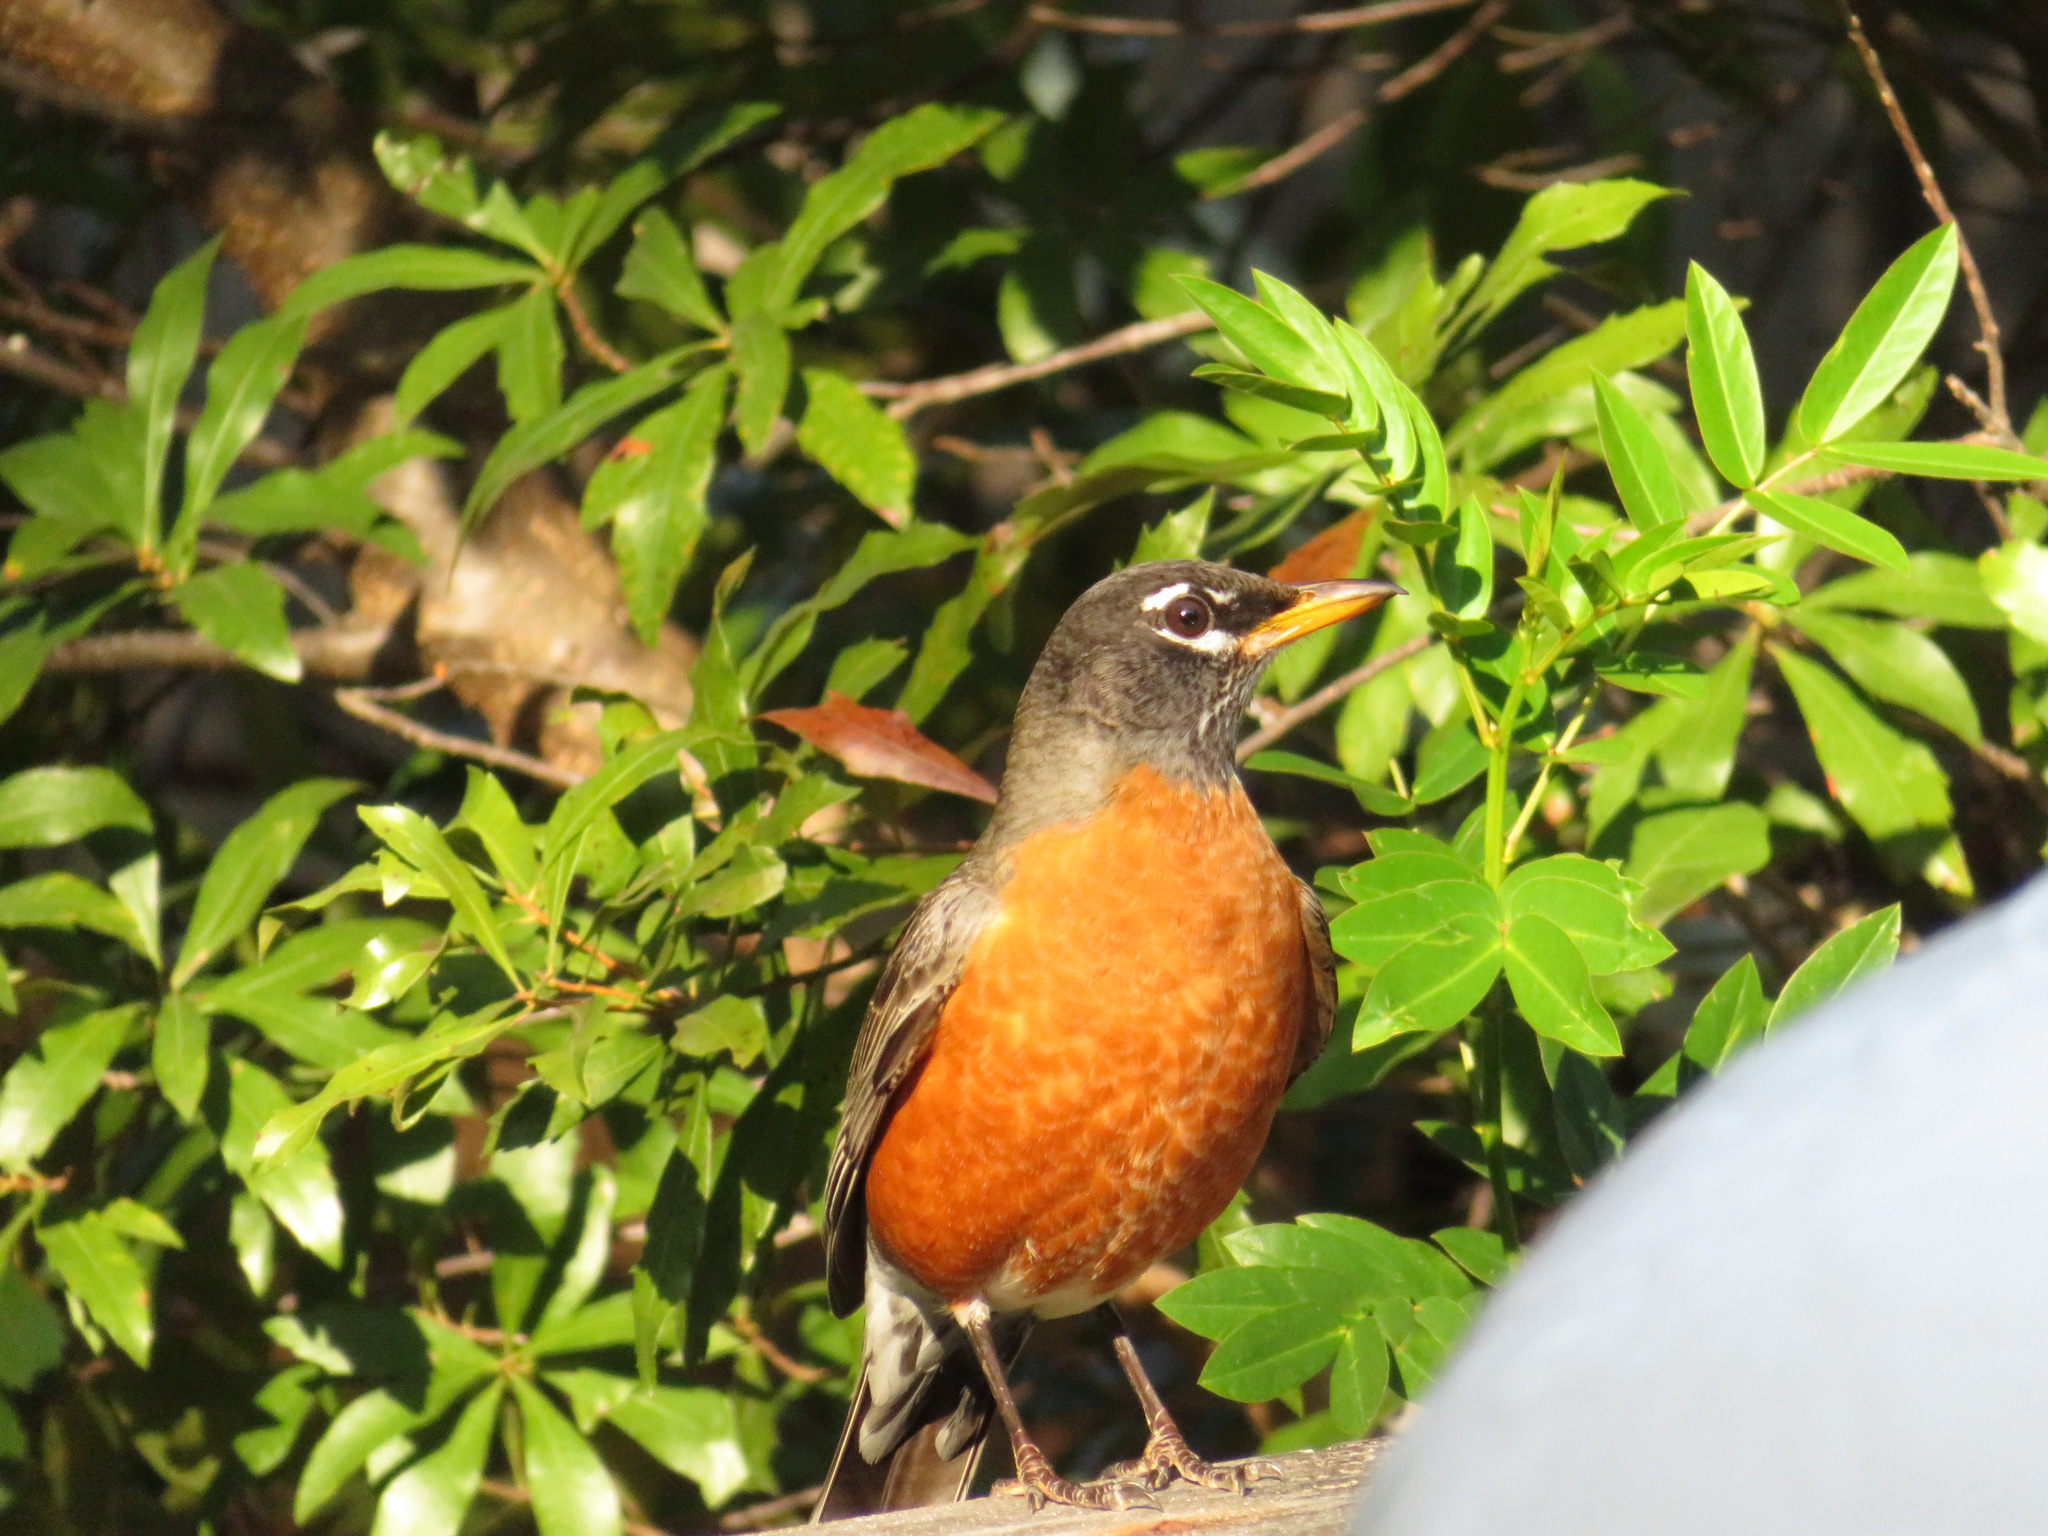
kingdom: Animalia
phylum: Chordata
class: Aves
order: Passeriformes
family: Turdidae
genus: Turdus
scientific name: Turdus migratorius
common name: American robin
